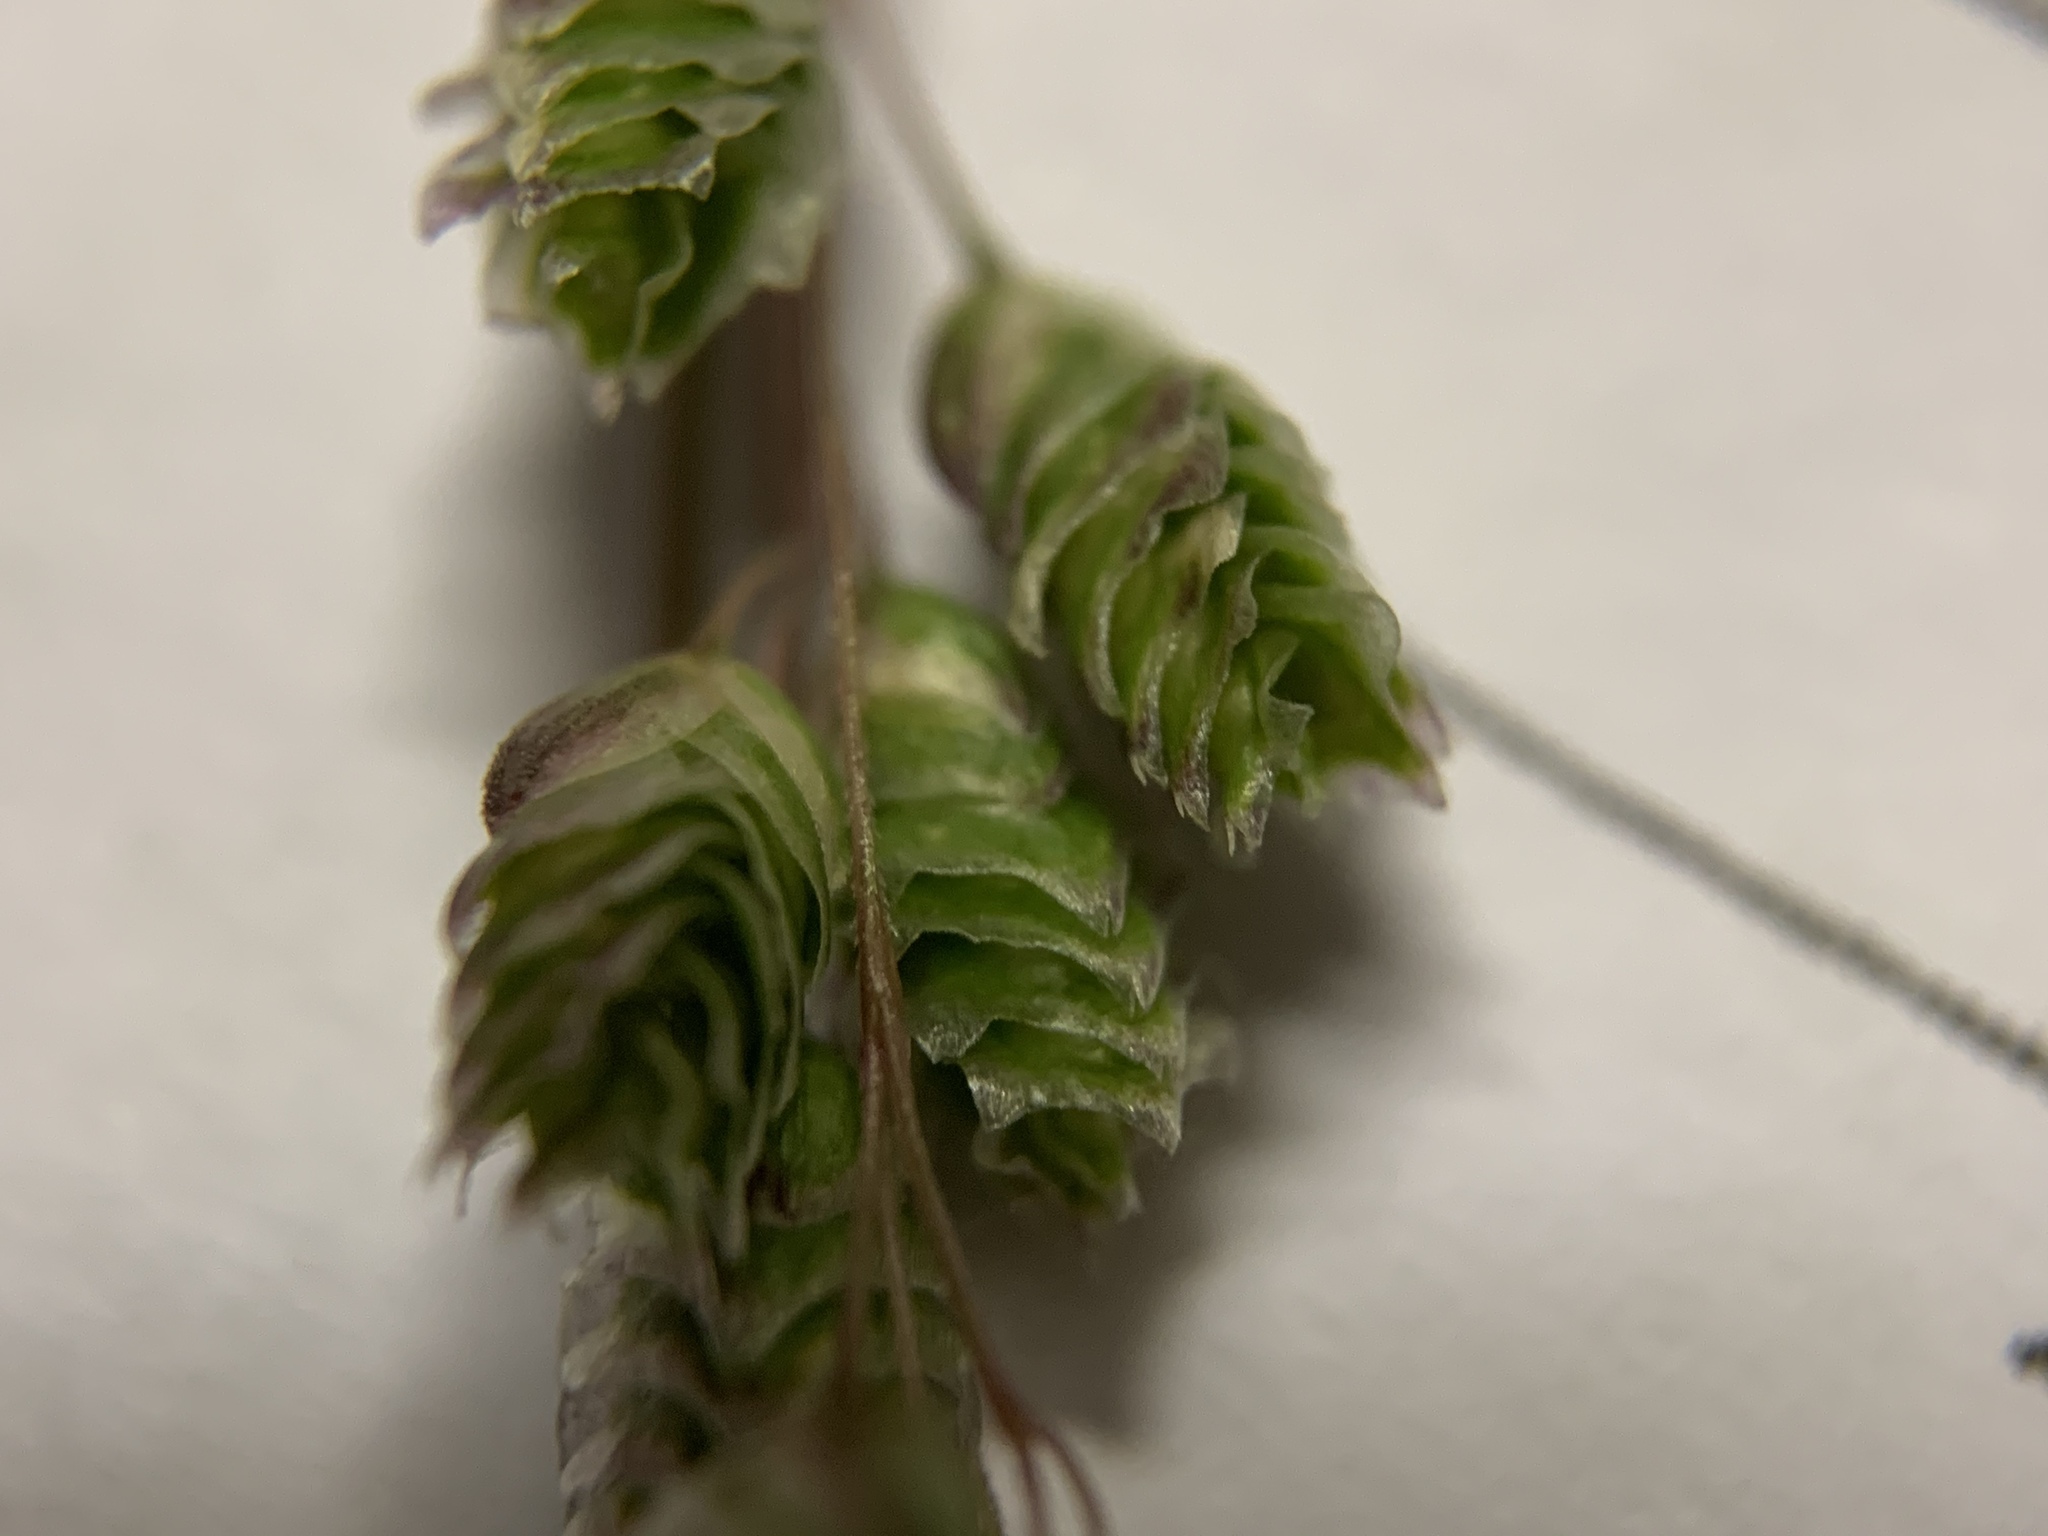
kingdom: Plantae
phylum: Tracheophyta
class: Liliopsida
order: Poales
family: Poaceae
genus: Chascolytrum
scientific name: Chascolytrum subaristatum
